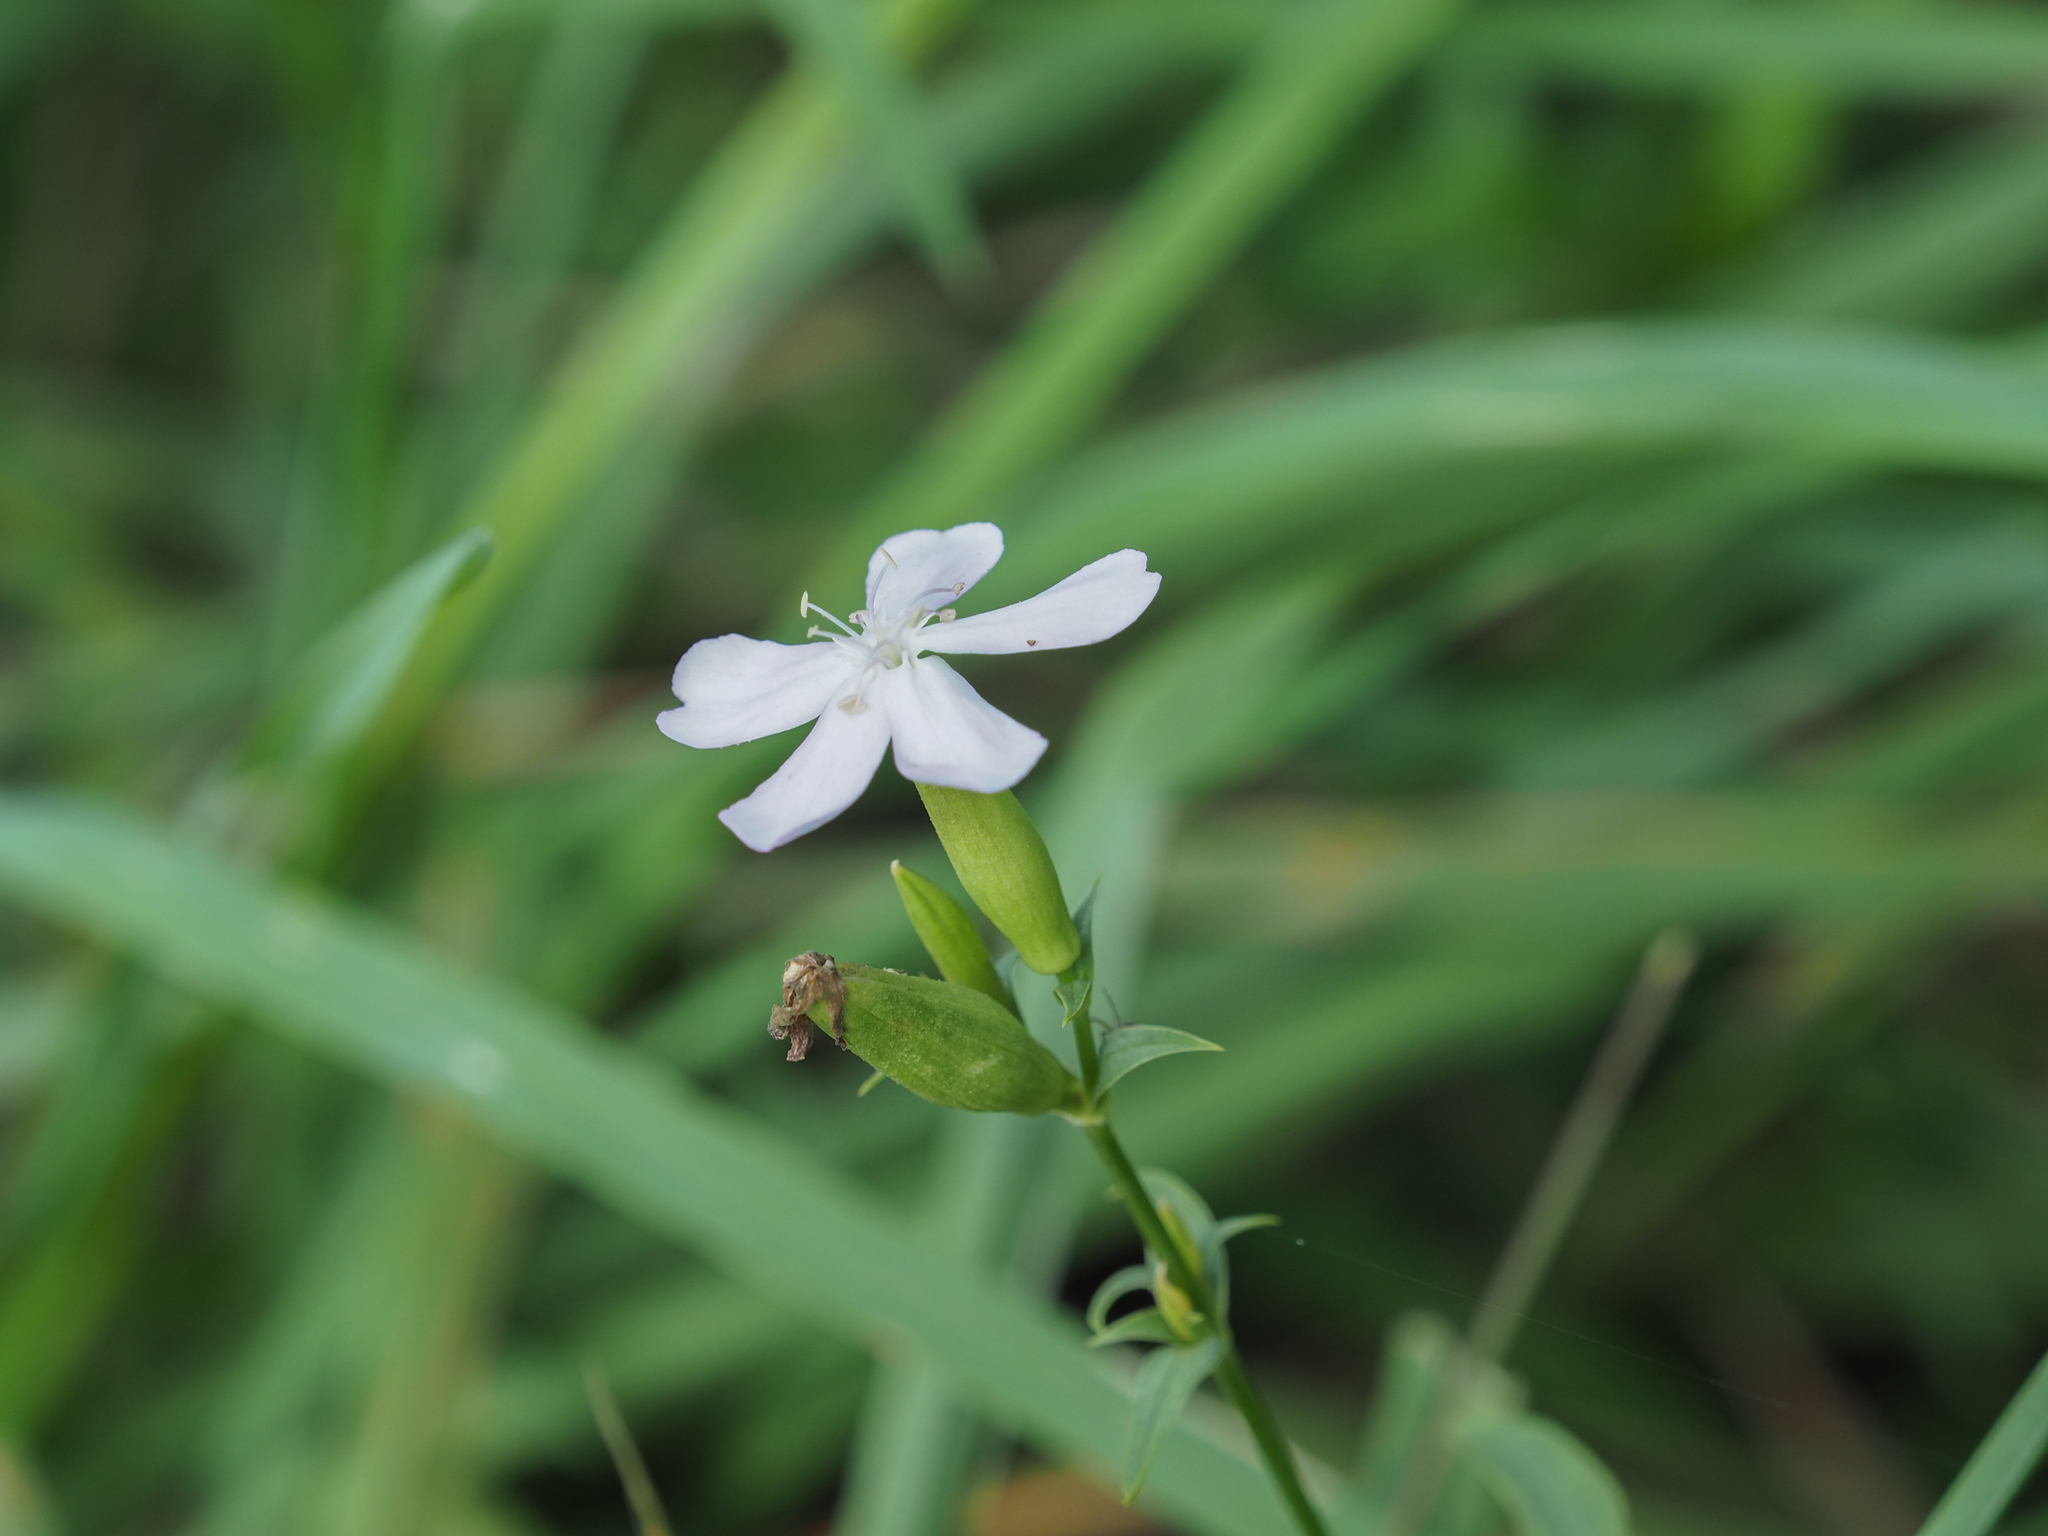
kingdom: Plantae
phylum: Tracheophyta
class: Magnoliopsida
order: Caryophyllales
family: Caryophyllaceae
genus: Saponaria
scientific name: Saponaria officinalis
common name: Soapwort
